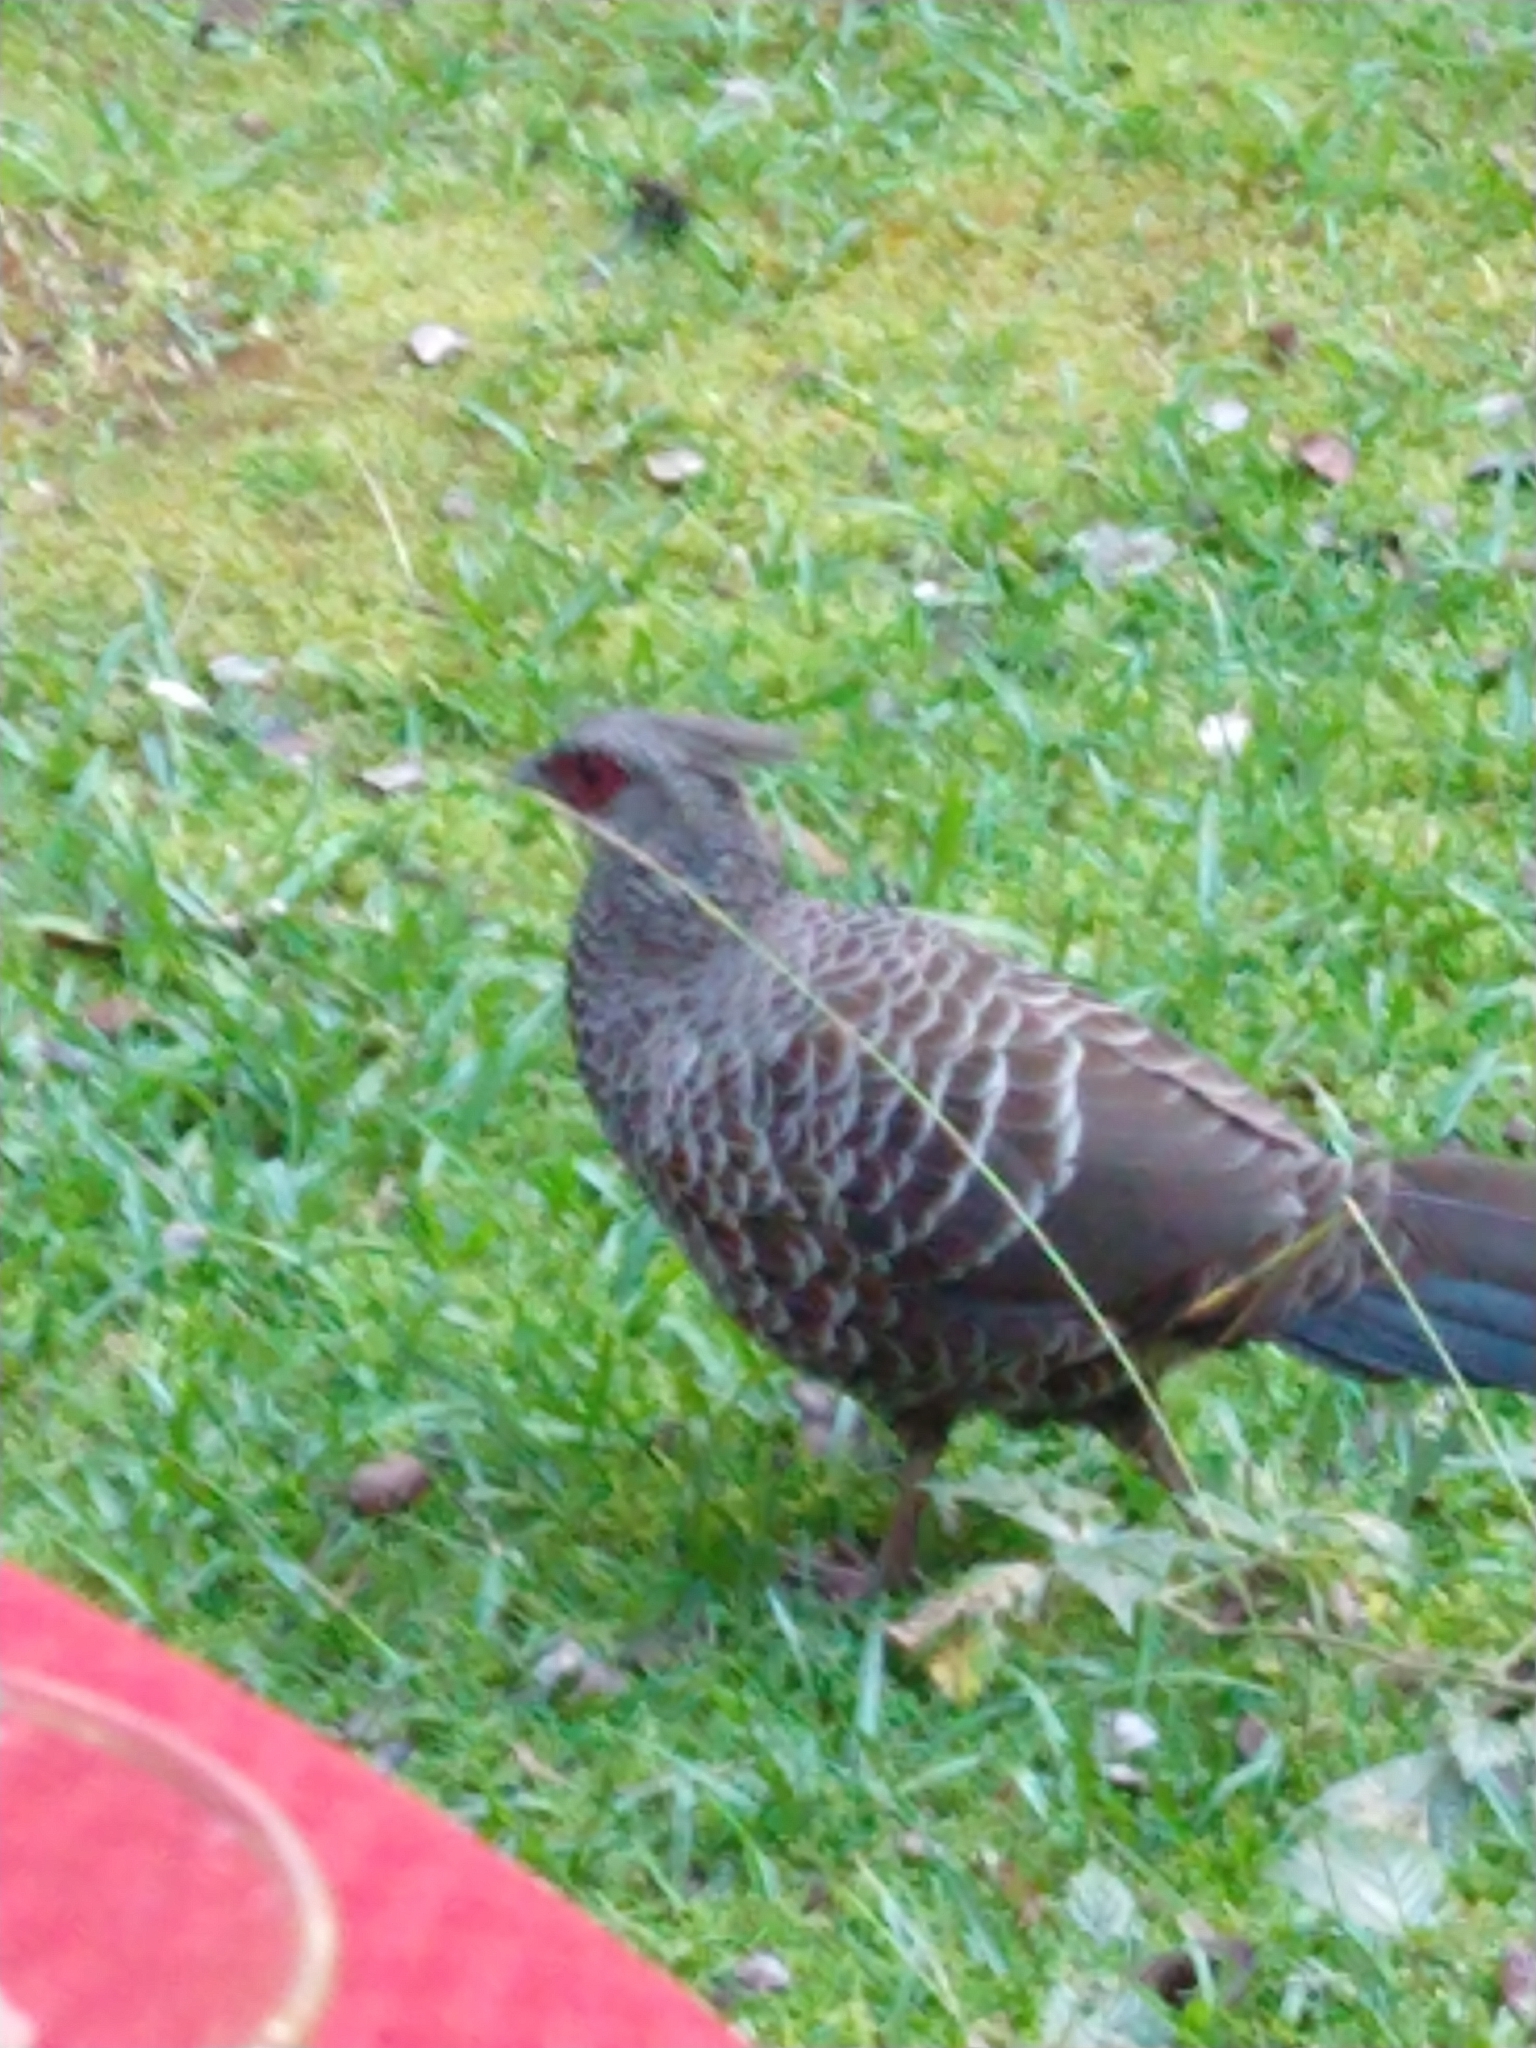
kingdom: Animalia
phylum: Chordata
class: Aves
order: Galliformes
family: Phasianidae
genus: Lophura
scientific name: Lophura leucomelanos
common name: Kalij pheasant
